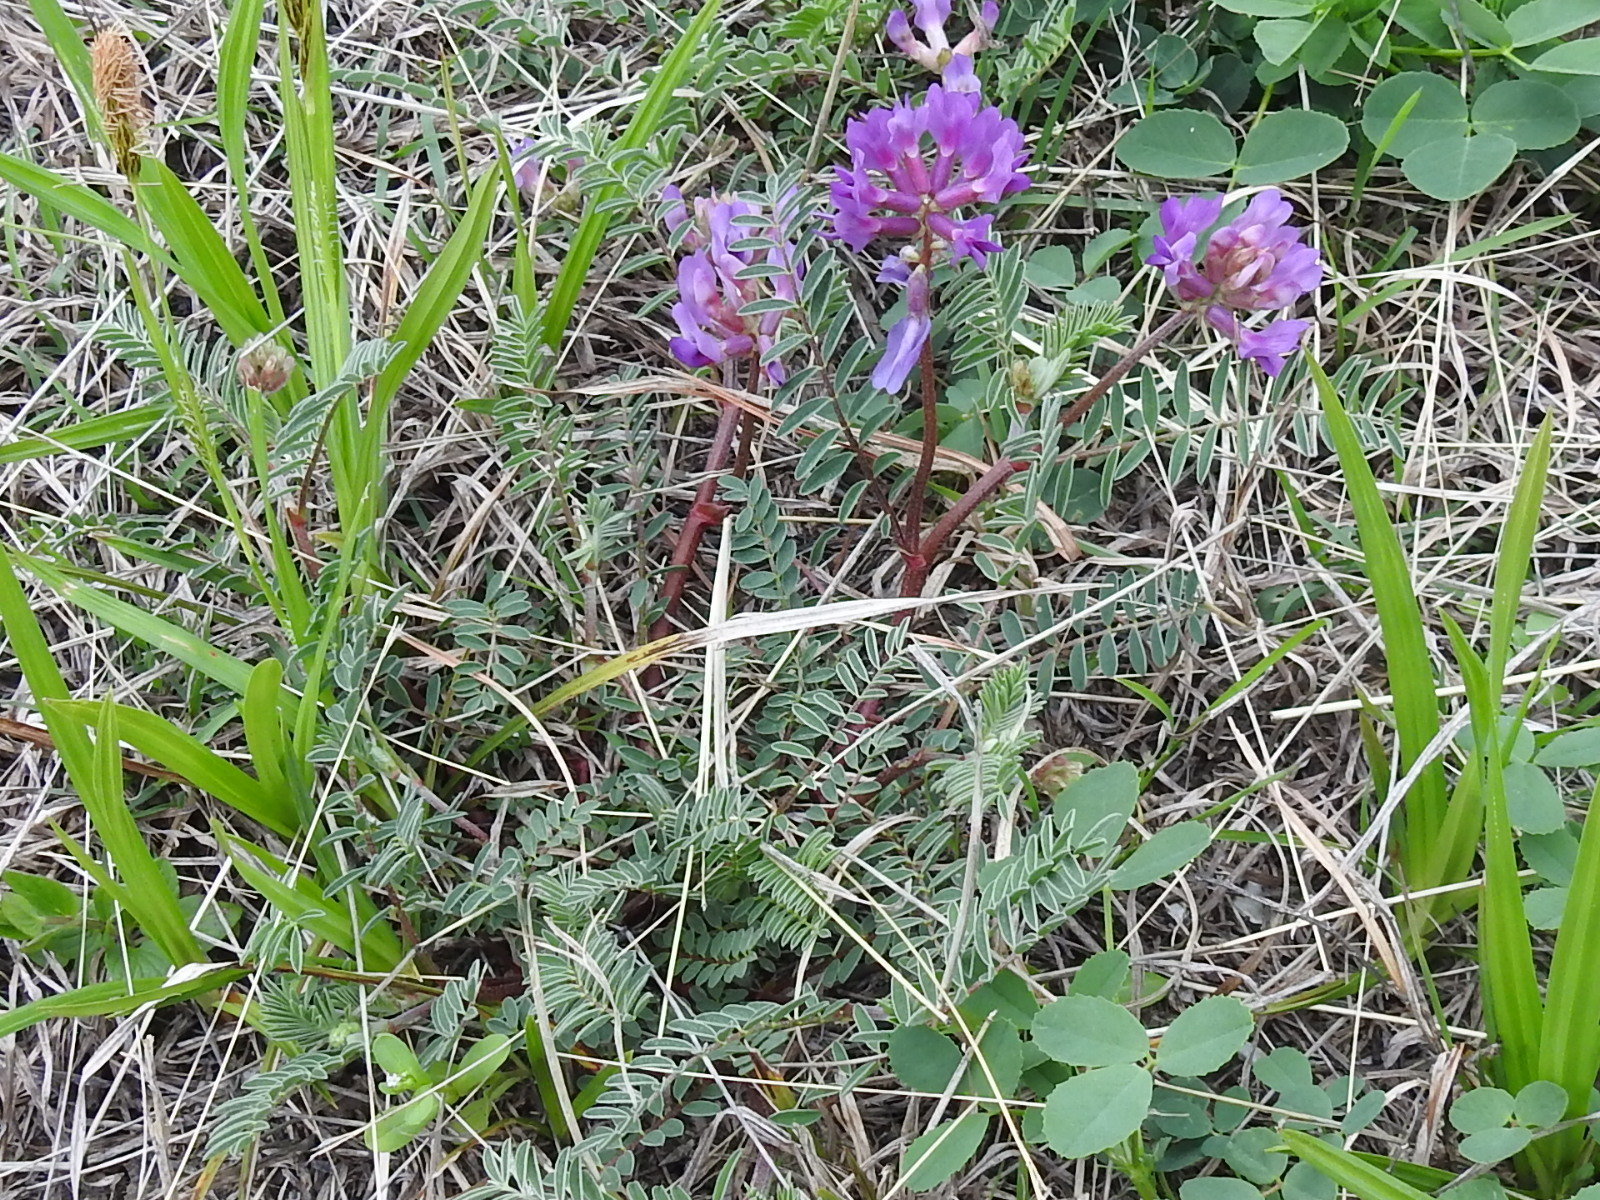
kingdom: Plantae
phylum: Tracheophyta
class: Magnoliopsida
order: Fabales
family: Fabaceae
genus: Astragalus
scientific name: Astragalus crassicarpus
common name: Ground-plum milk-vetch
